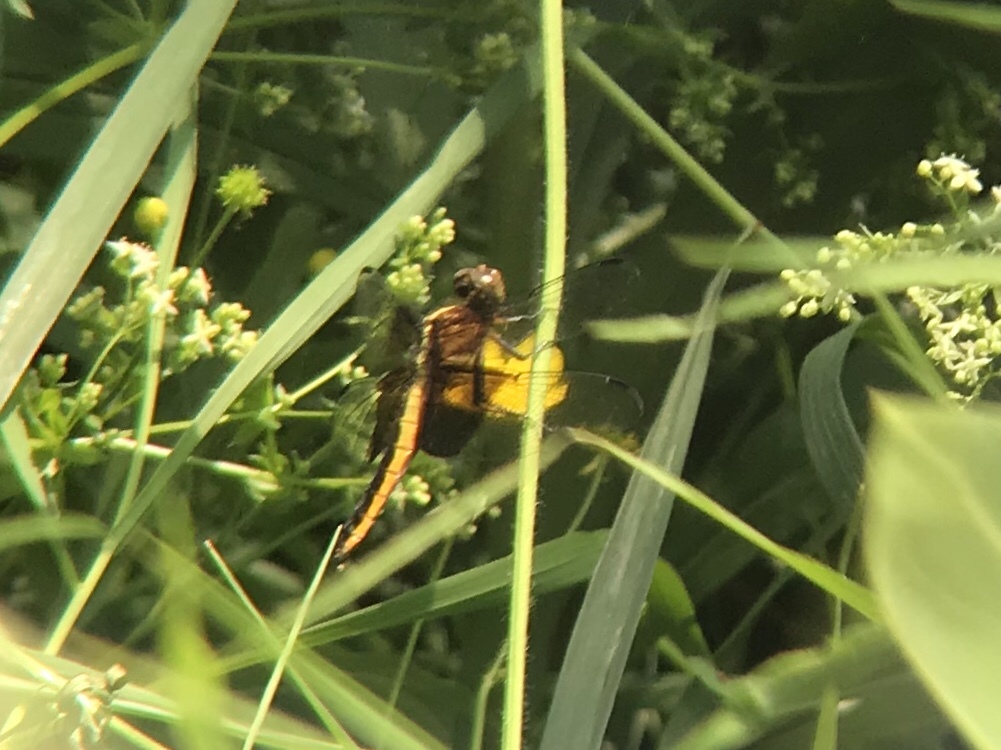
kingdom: Animalia
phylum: Arthropoda
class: Insecta
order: Odonata
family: Libellulidae
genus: Libellula
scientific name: Libellula luctuosa
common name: Widow skimmer
